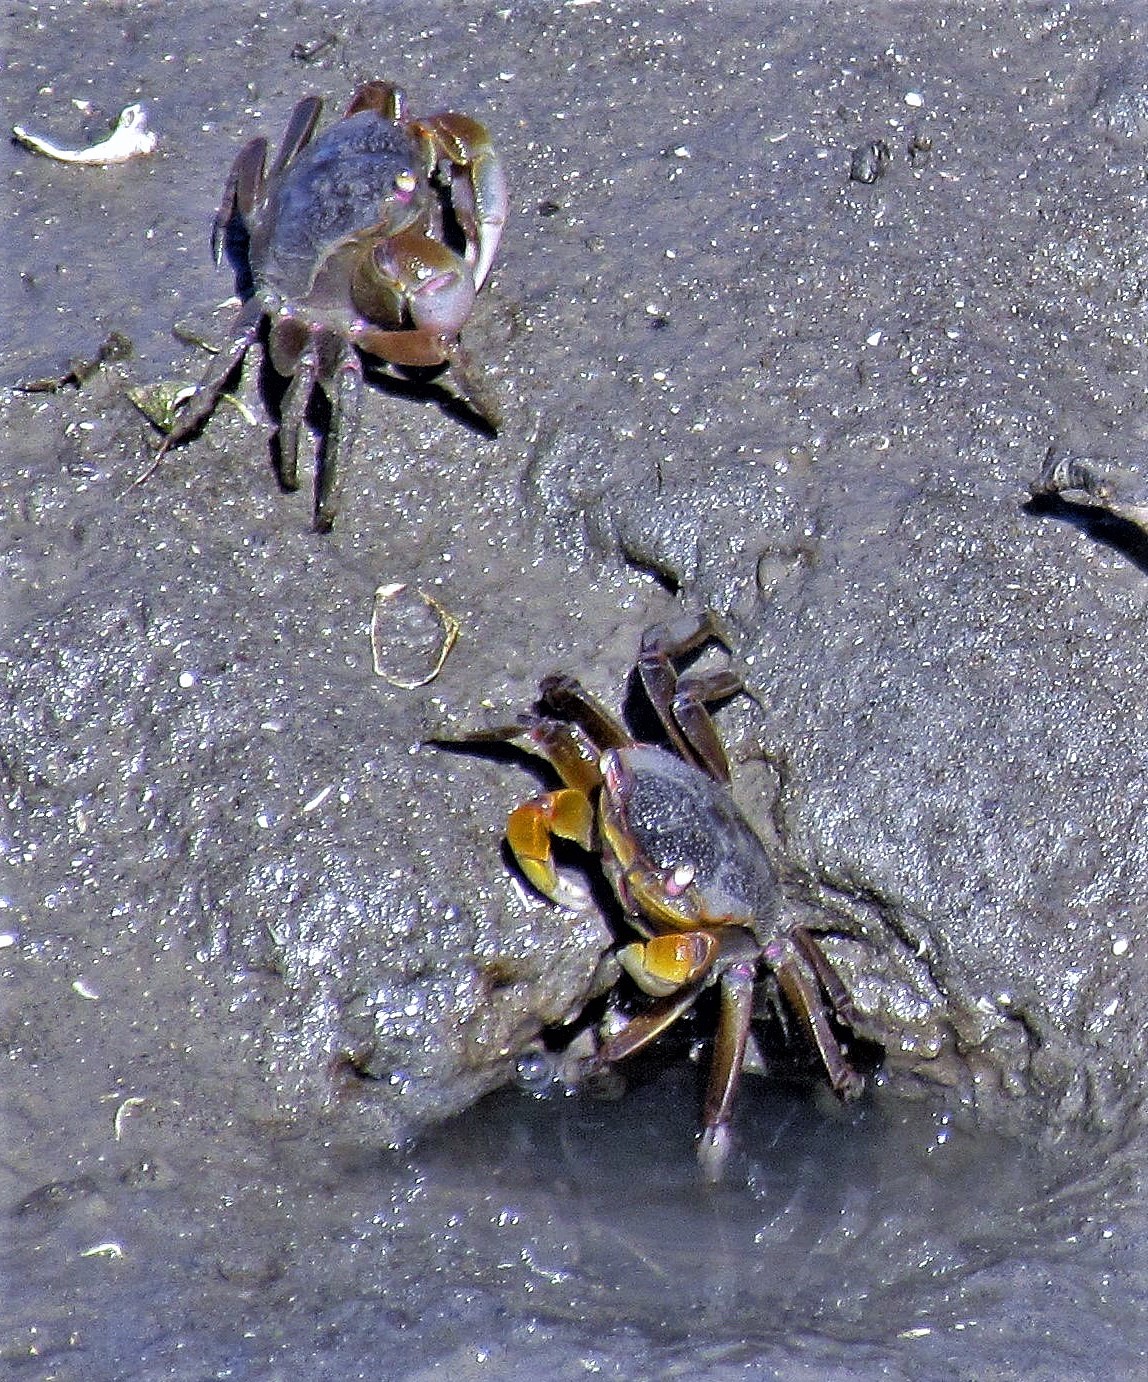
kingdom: Animalia
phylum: Arthropoda
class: Malacostraca
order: Decapoda
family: Varunidae
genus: Neohelice
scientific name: Neohelice granulata
